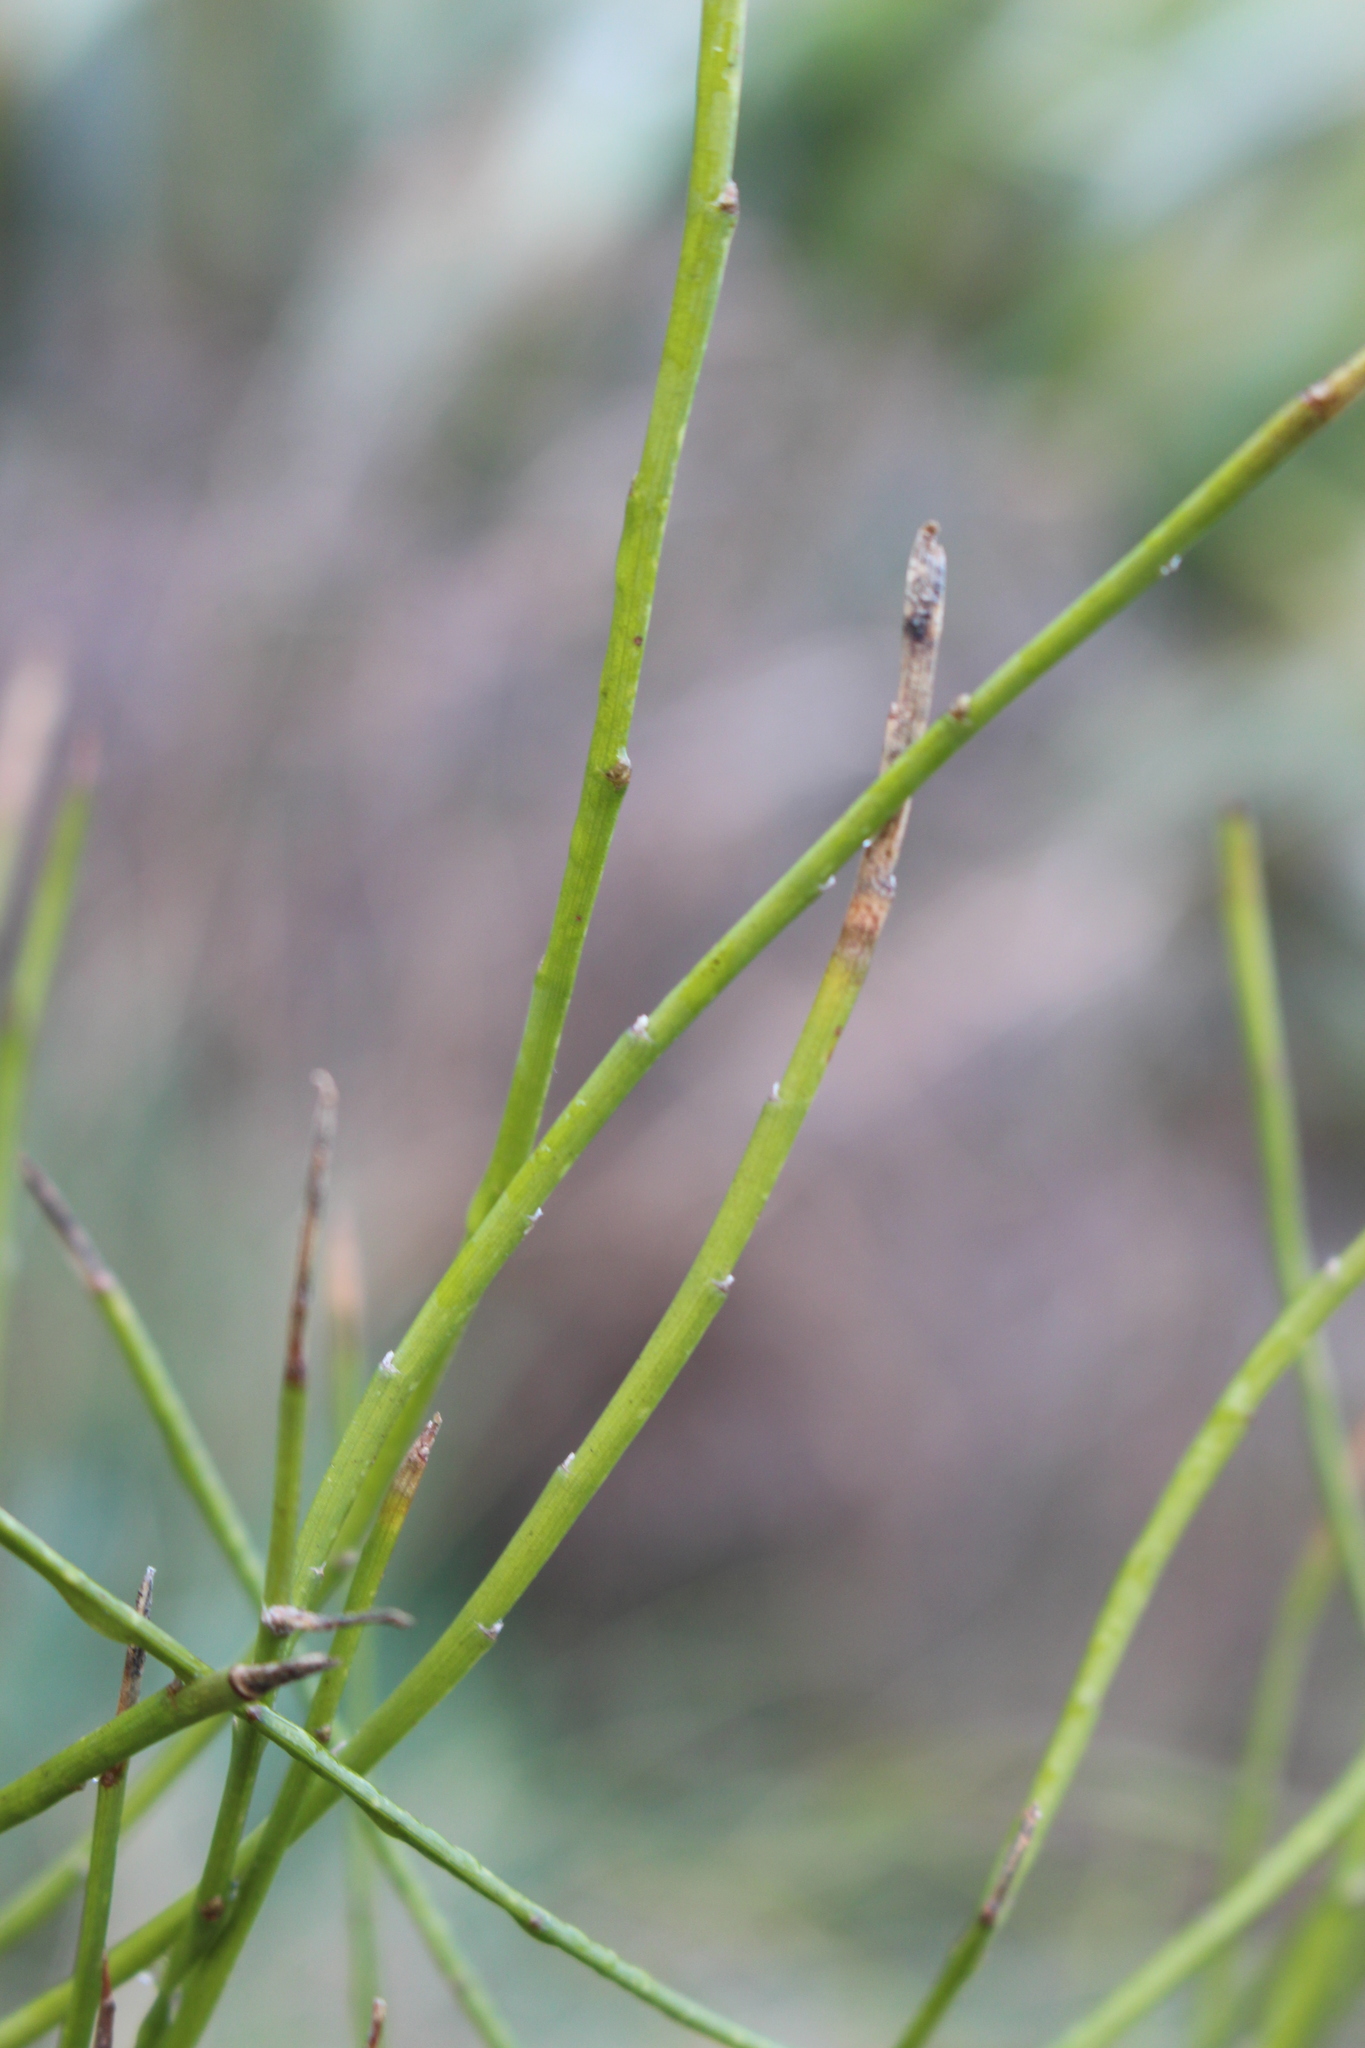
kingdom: Plantae
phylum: Tracheophyta
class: Magnoliopsida
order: Fabales
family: Fabaceae
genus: Carmichaelia
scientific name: Carmichaelia australis
